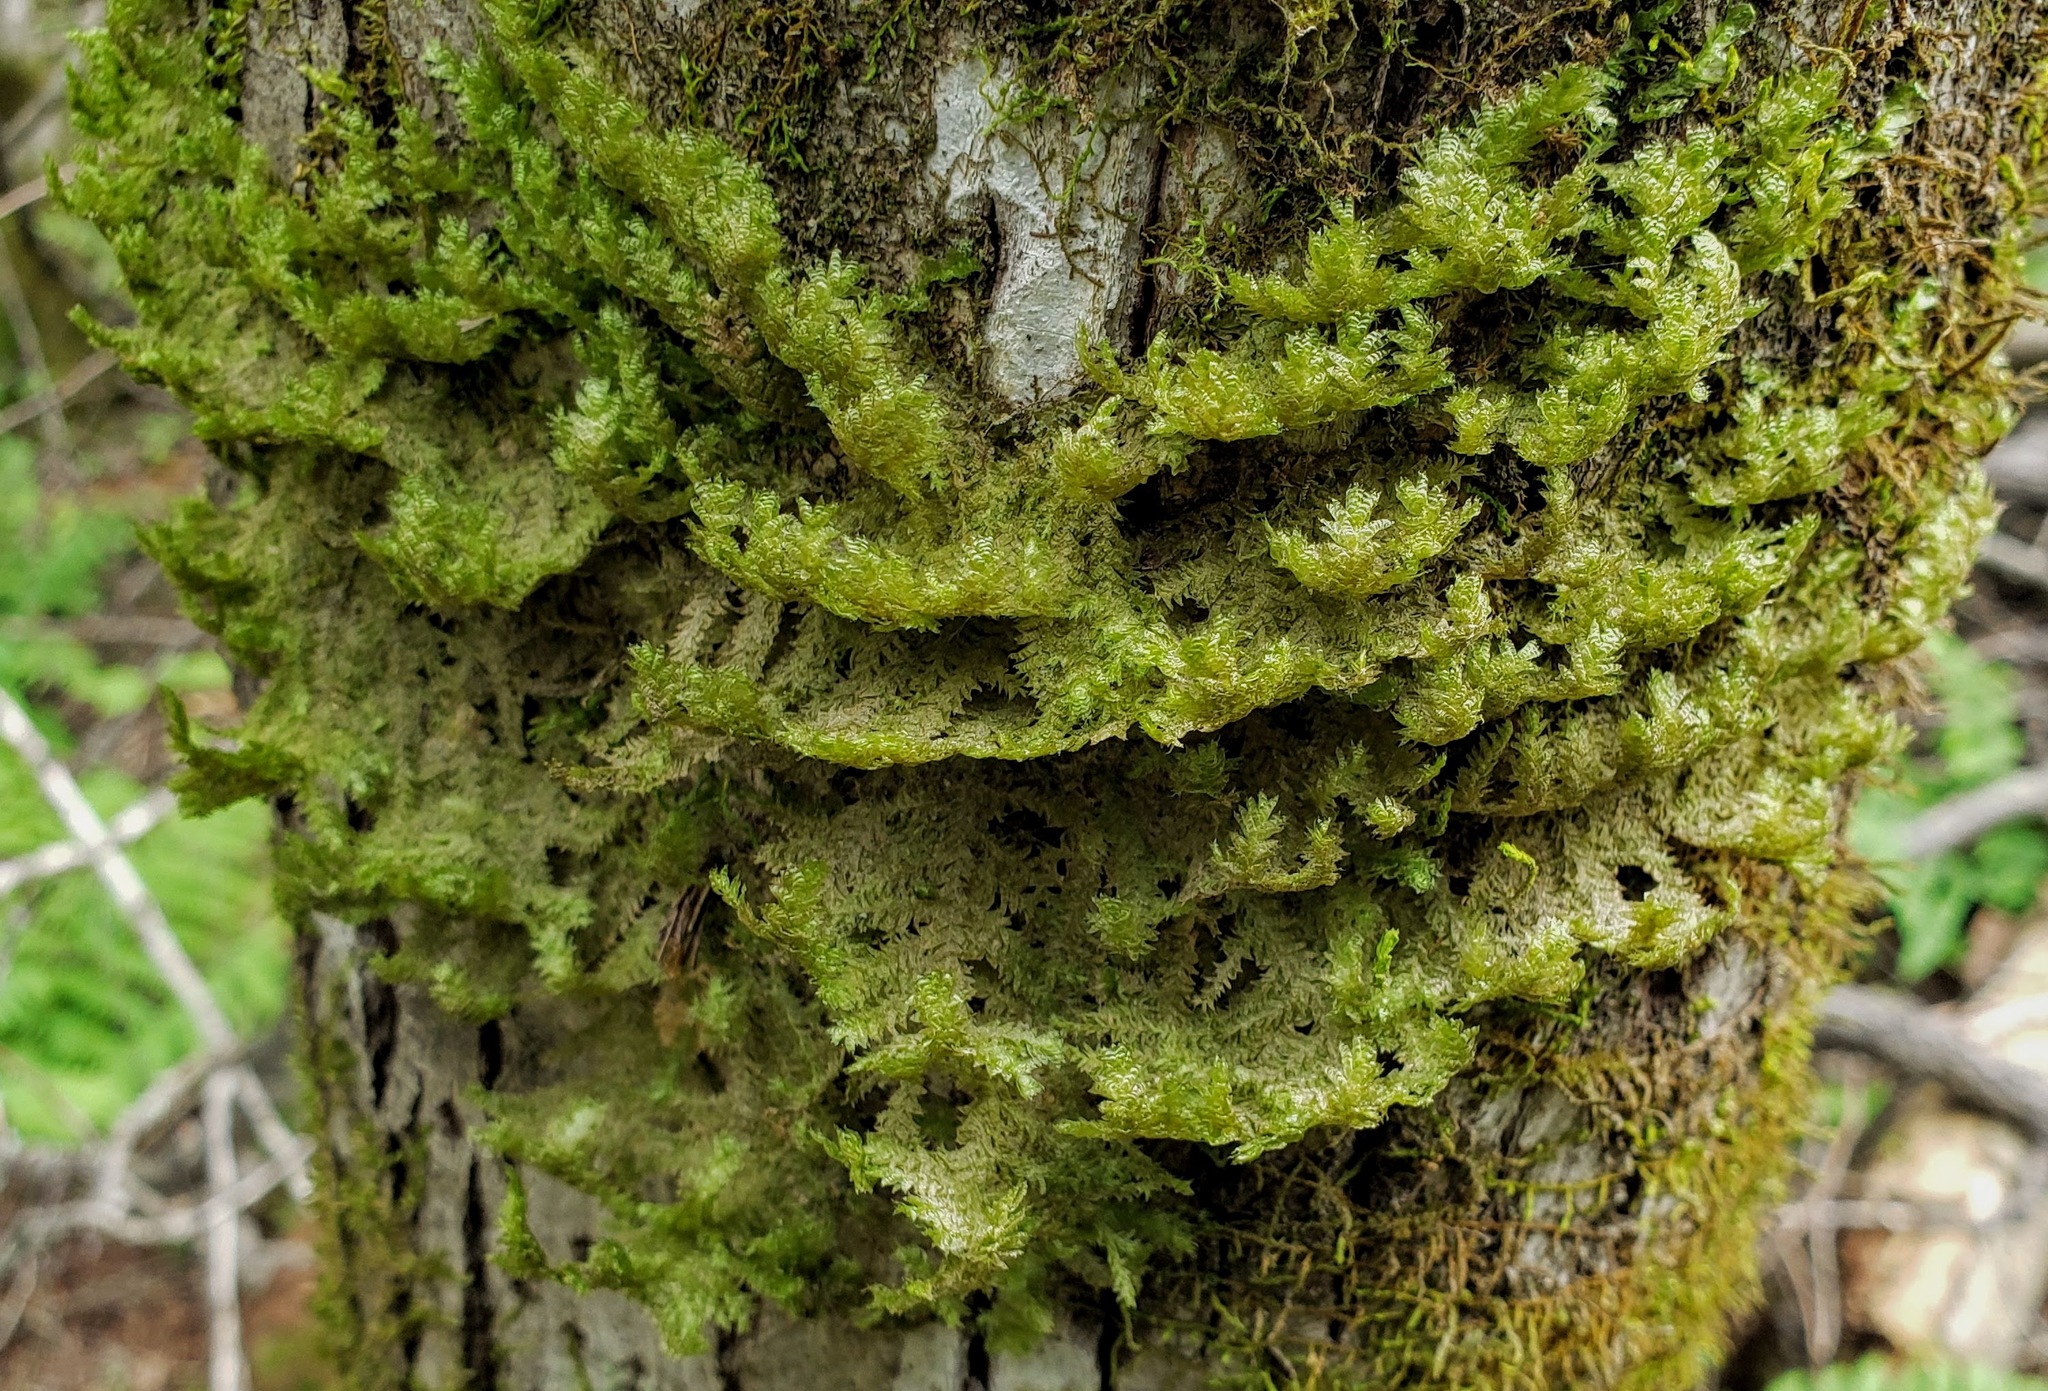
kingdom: Plantae
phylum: Bryophyta
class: Bryopsida
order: Hypnales
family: Neckeraceae
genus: Neckera
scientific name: Neckera pennata
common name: Feathery neckera
